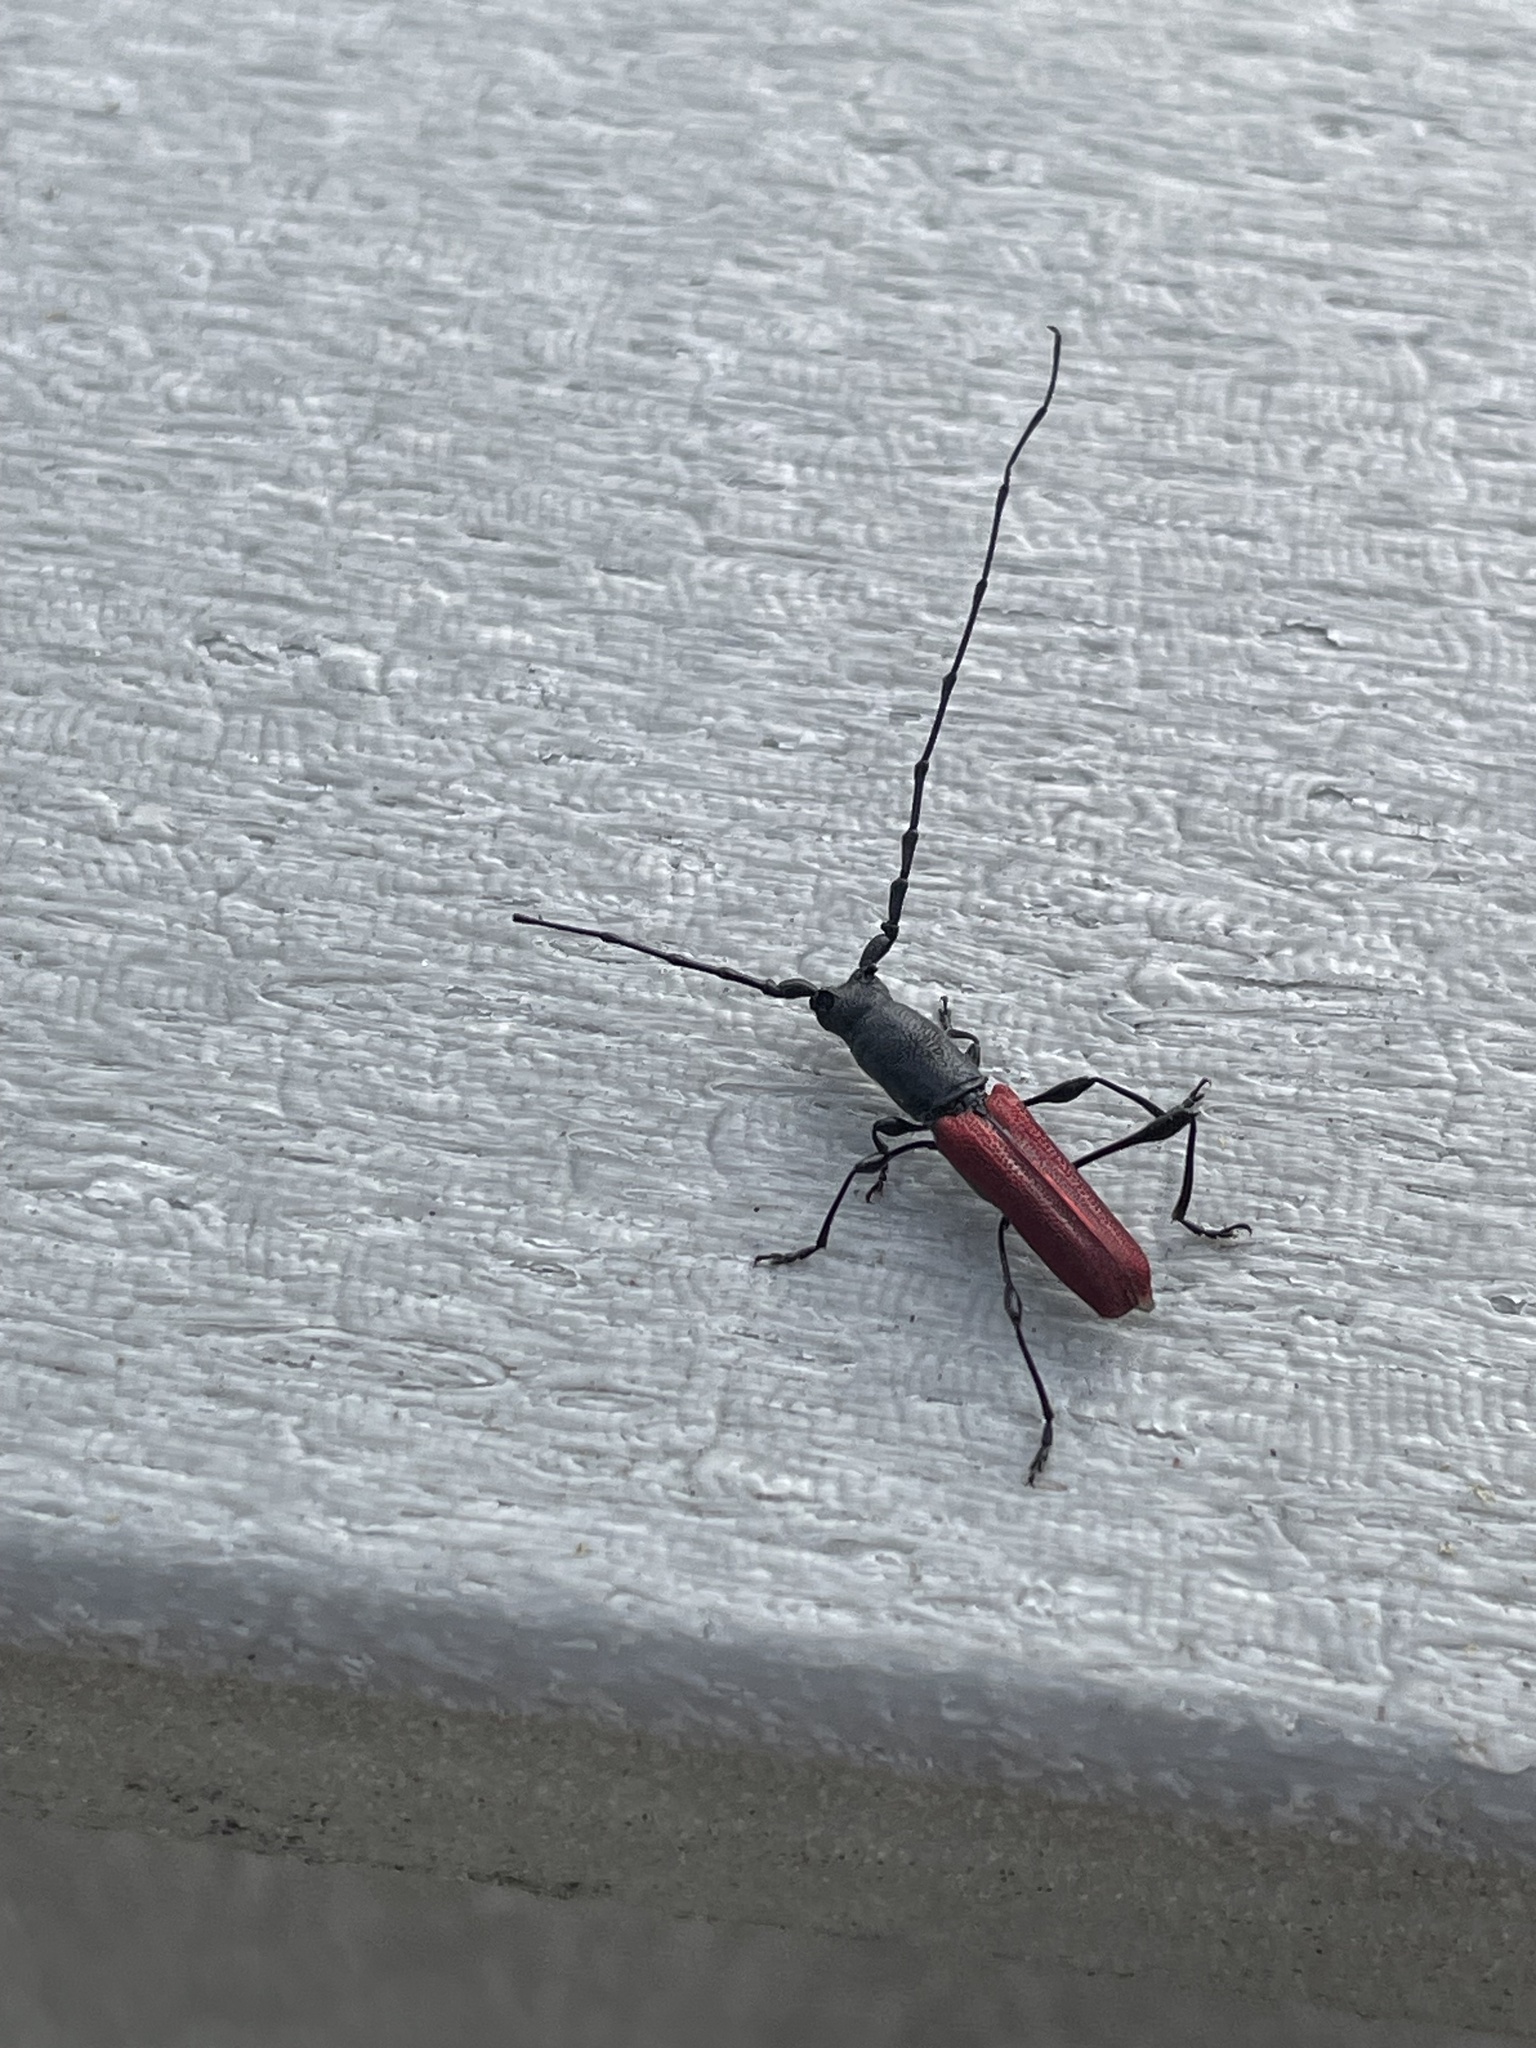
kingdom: Animalia
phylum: Arthropoda
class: Insecta
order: Coleoptera
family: Cerambycidae
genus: Ancylocera
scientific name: Ancylocera bicolor
